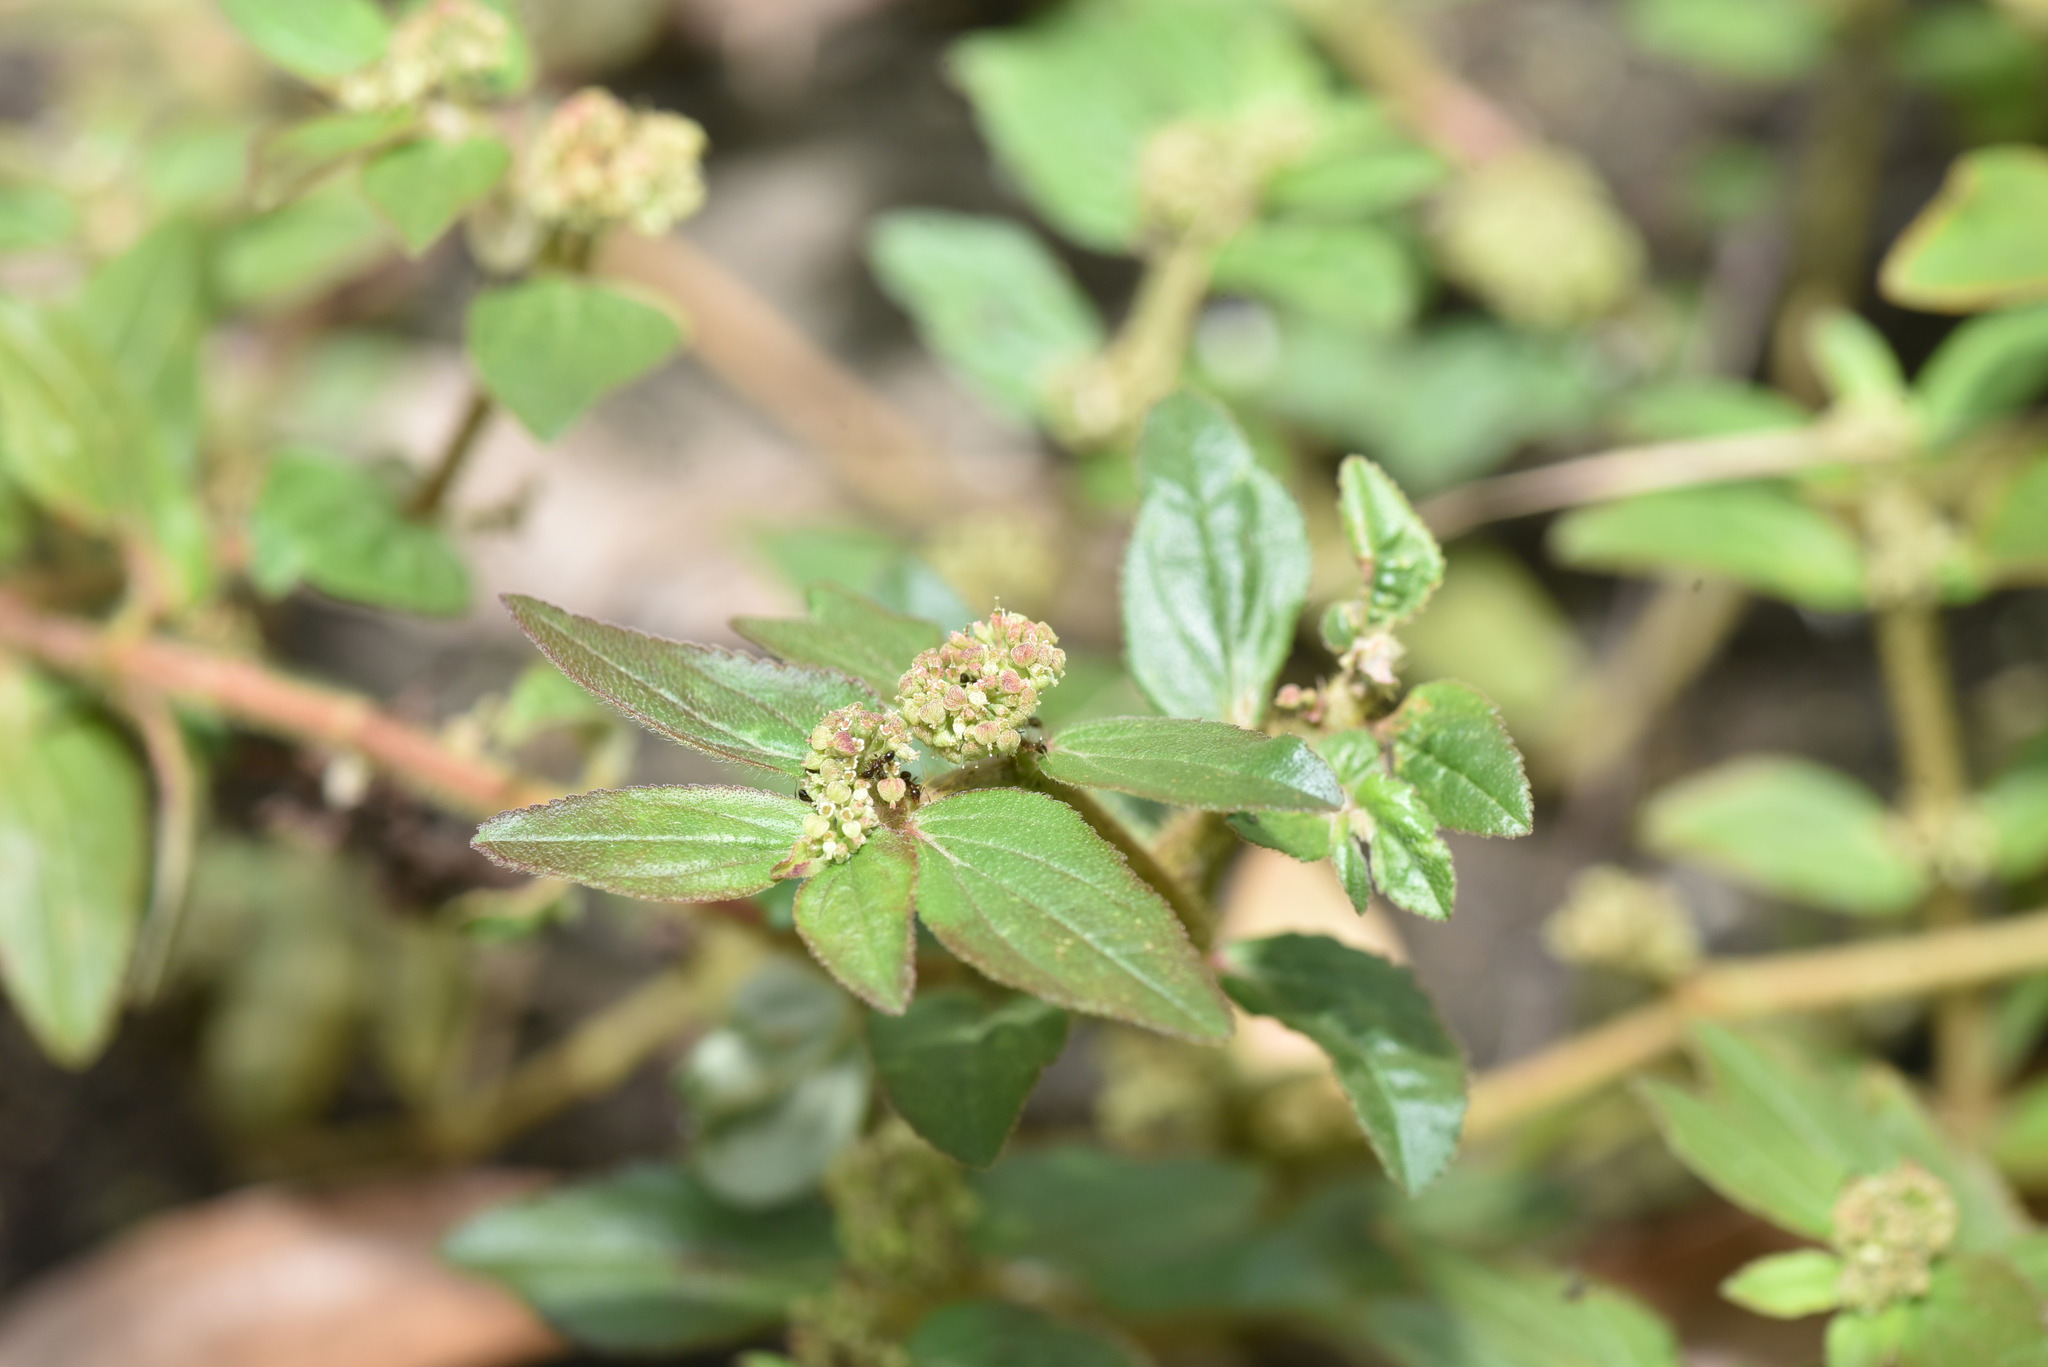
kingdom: Plantae
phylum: Tracheophyta
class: Magnoliopsida
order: Malpighiales
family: Euphorbiaceae
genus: Euphorbia
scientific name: Euphorbia hirta
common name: Pillpod sandmat
